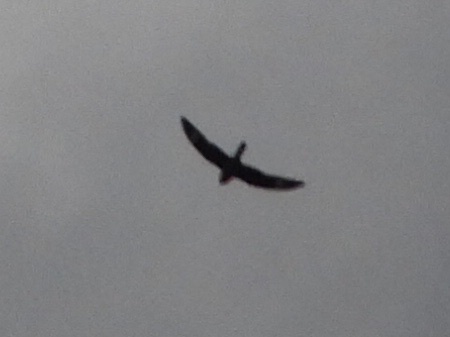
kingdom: Animalia
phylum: Chordata
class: Aves
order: Caprimulgiformes
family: Caprimulgidae
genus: Chordeiles
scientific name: Chordeiles minor
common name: Common nighthawk
